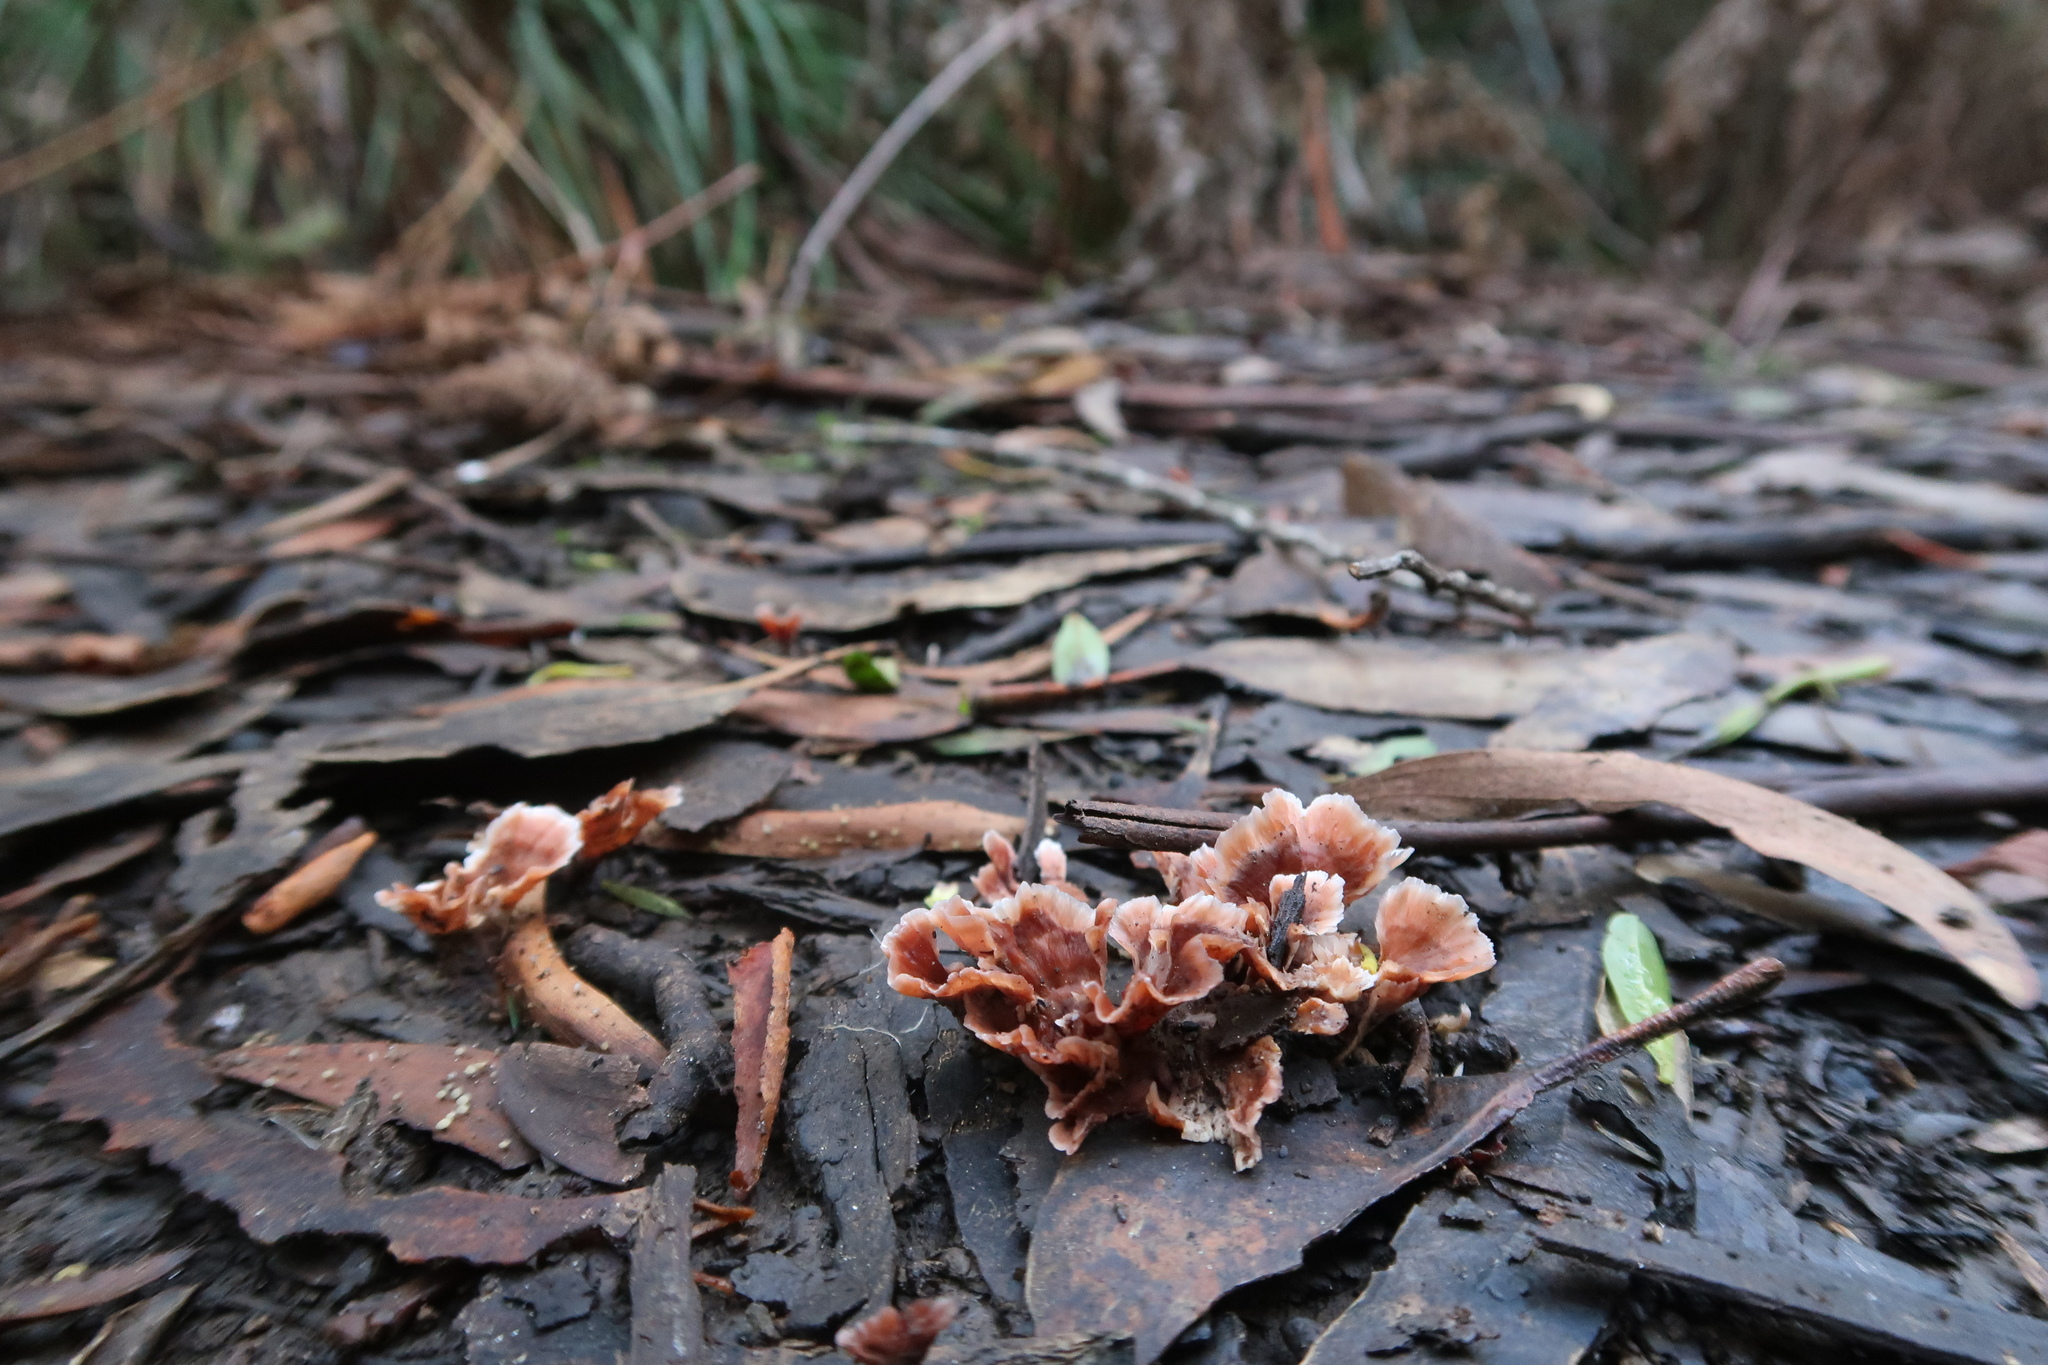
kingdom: Fungi
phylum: Basidiomycota
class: Agaricomycetes
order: Polyporales
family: Podoscyphaceae
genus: Podoscypha
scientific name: Podoscypha petalodes
